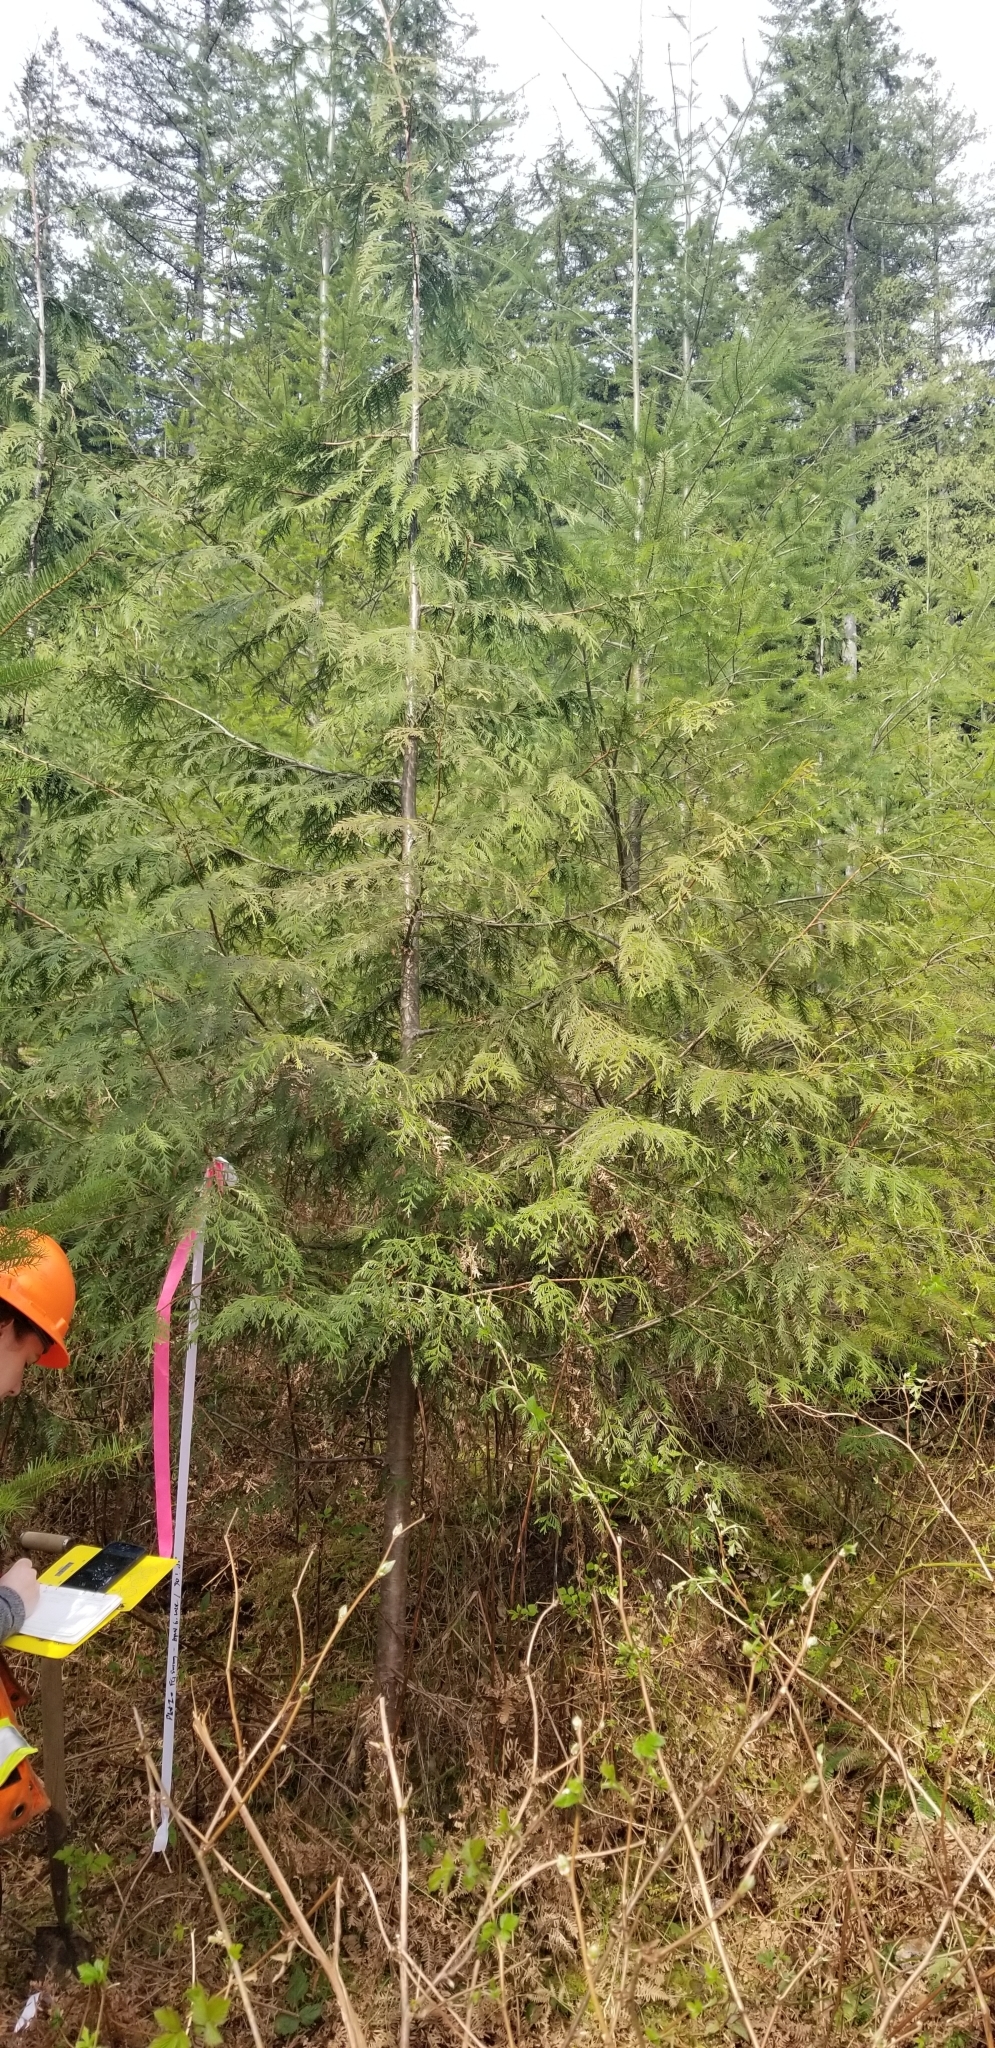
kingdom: Plantae
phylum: Tracheophyta
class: Pinopsida
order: Pinales
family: Cupressaceae
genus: Thuja
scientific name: Thuja plicata
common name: Western red-cedar
